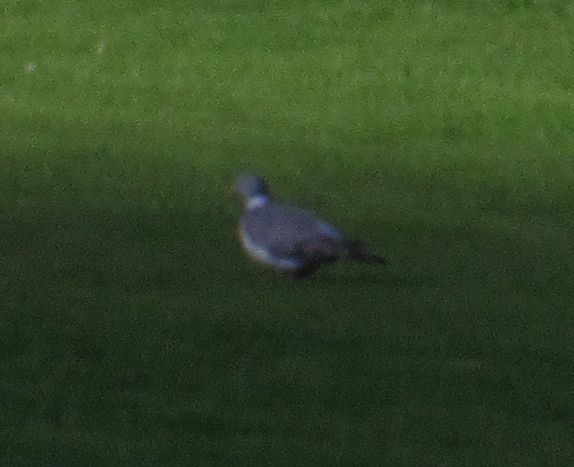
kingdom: Animalia
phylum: Chordata
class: Aves
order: Columbiformes
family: Columbidae
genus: Columba
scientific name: Columba palumbus
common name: Common wood pigeon
